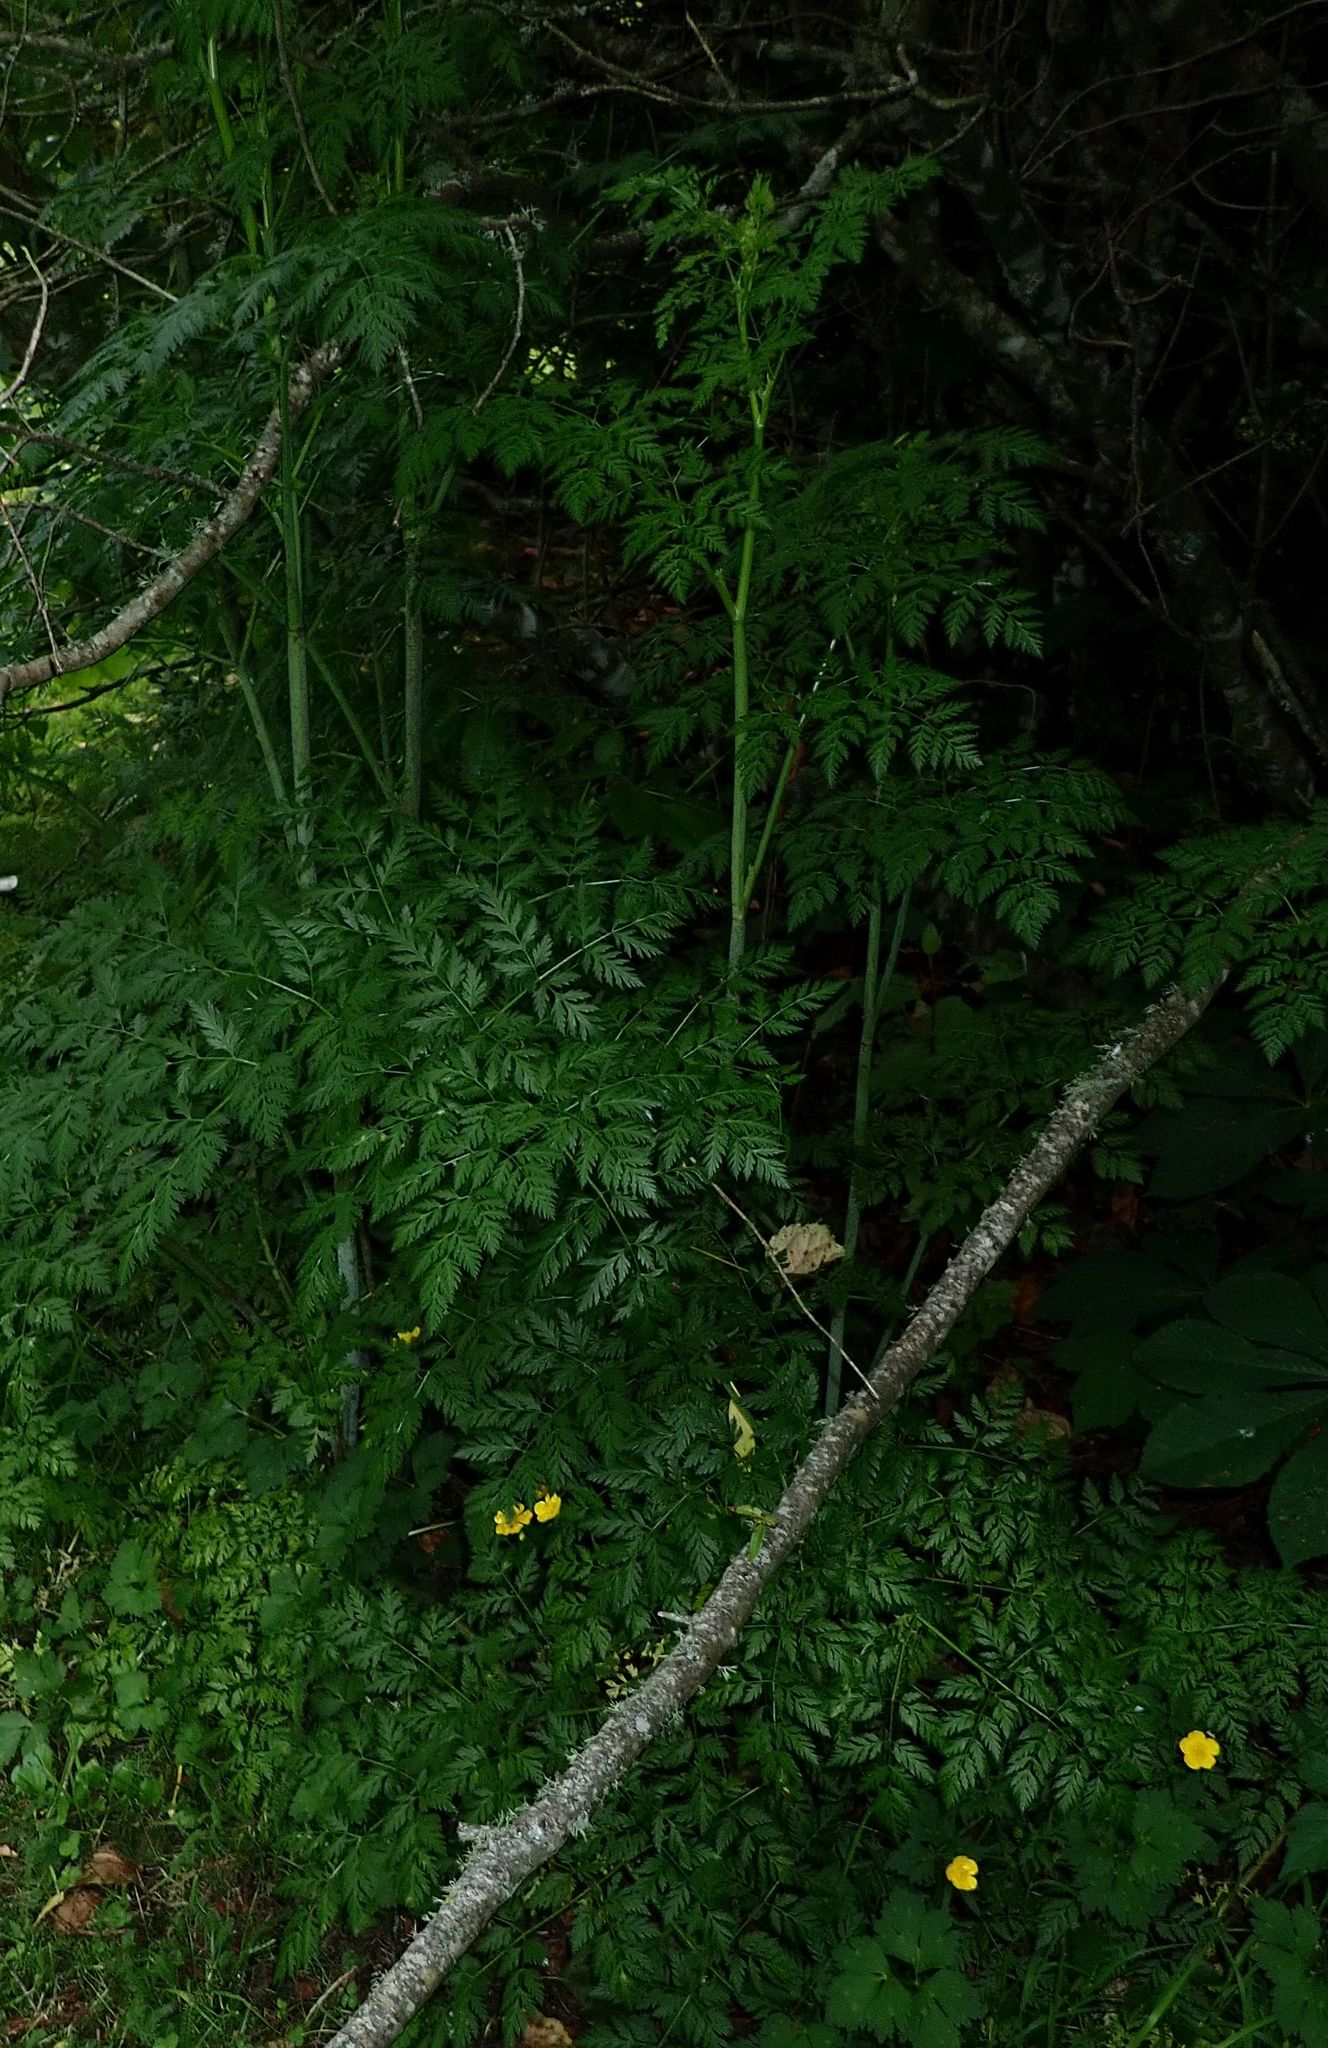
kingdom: Plantae
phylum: Tracheophyta
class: Magnoliopsida
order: Apiales
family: Apiaceae
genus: Conium
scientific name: Conium maculatum
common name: Hemlock
